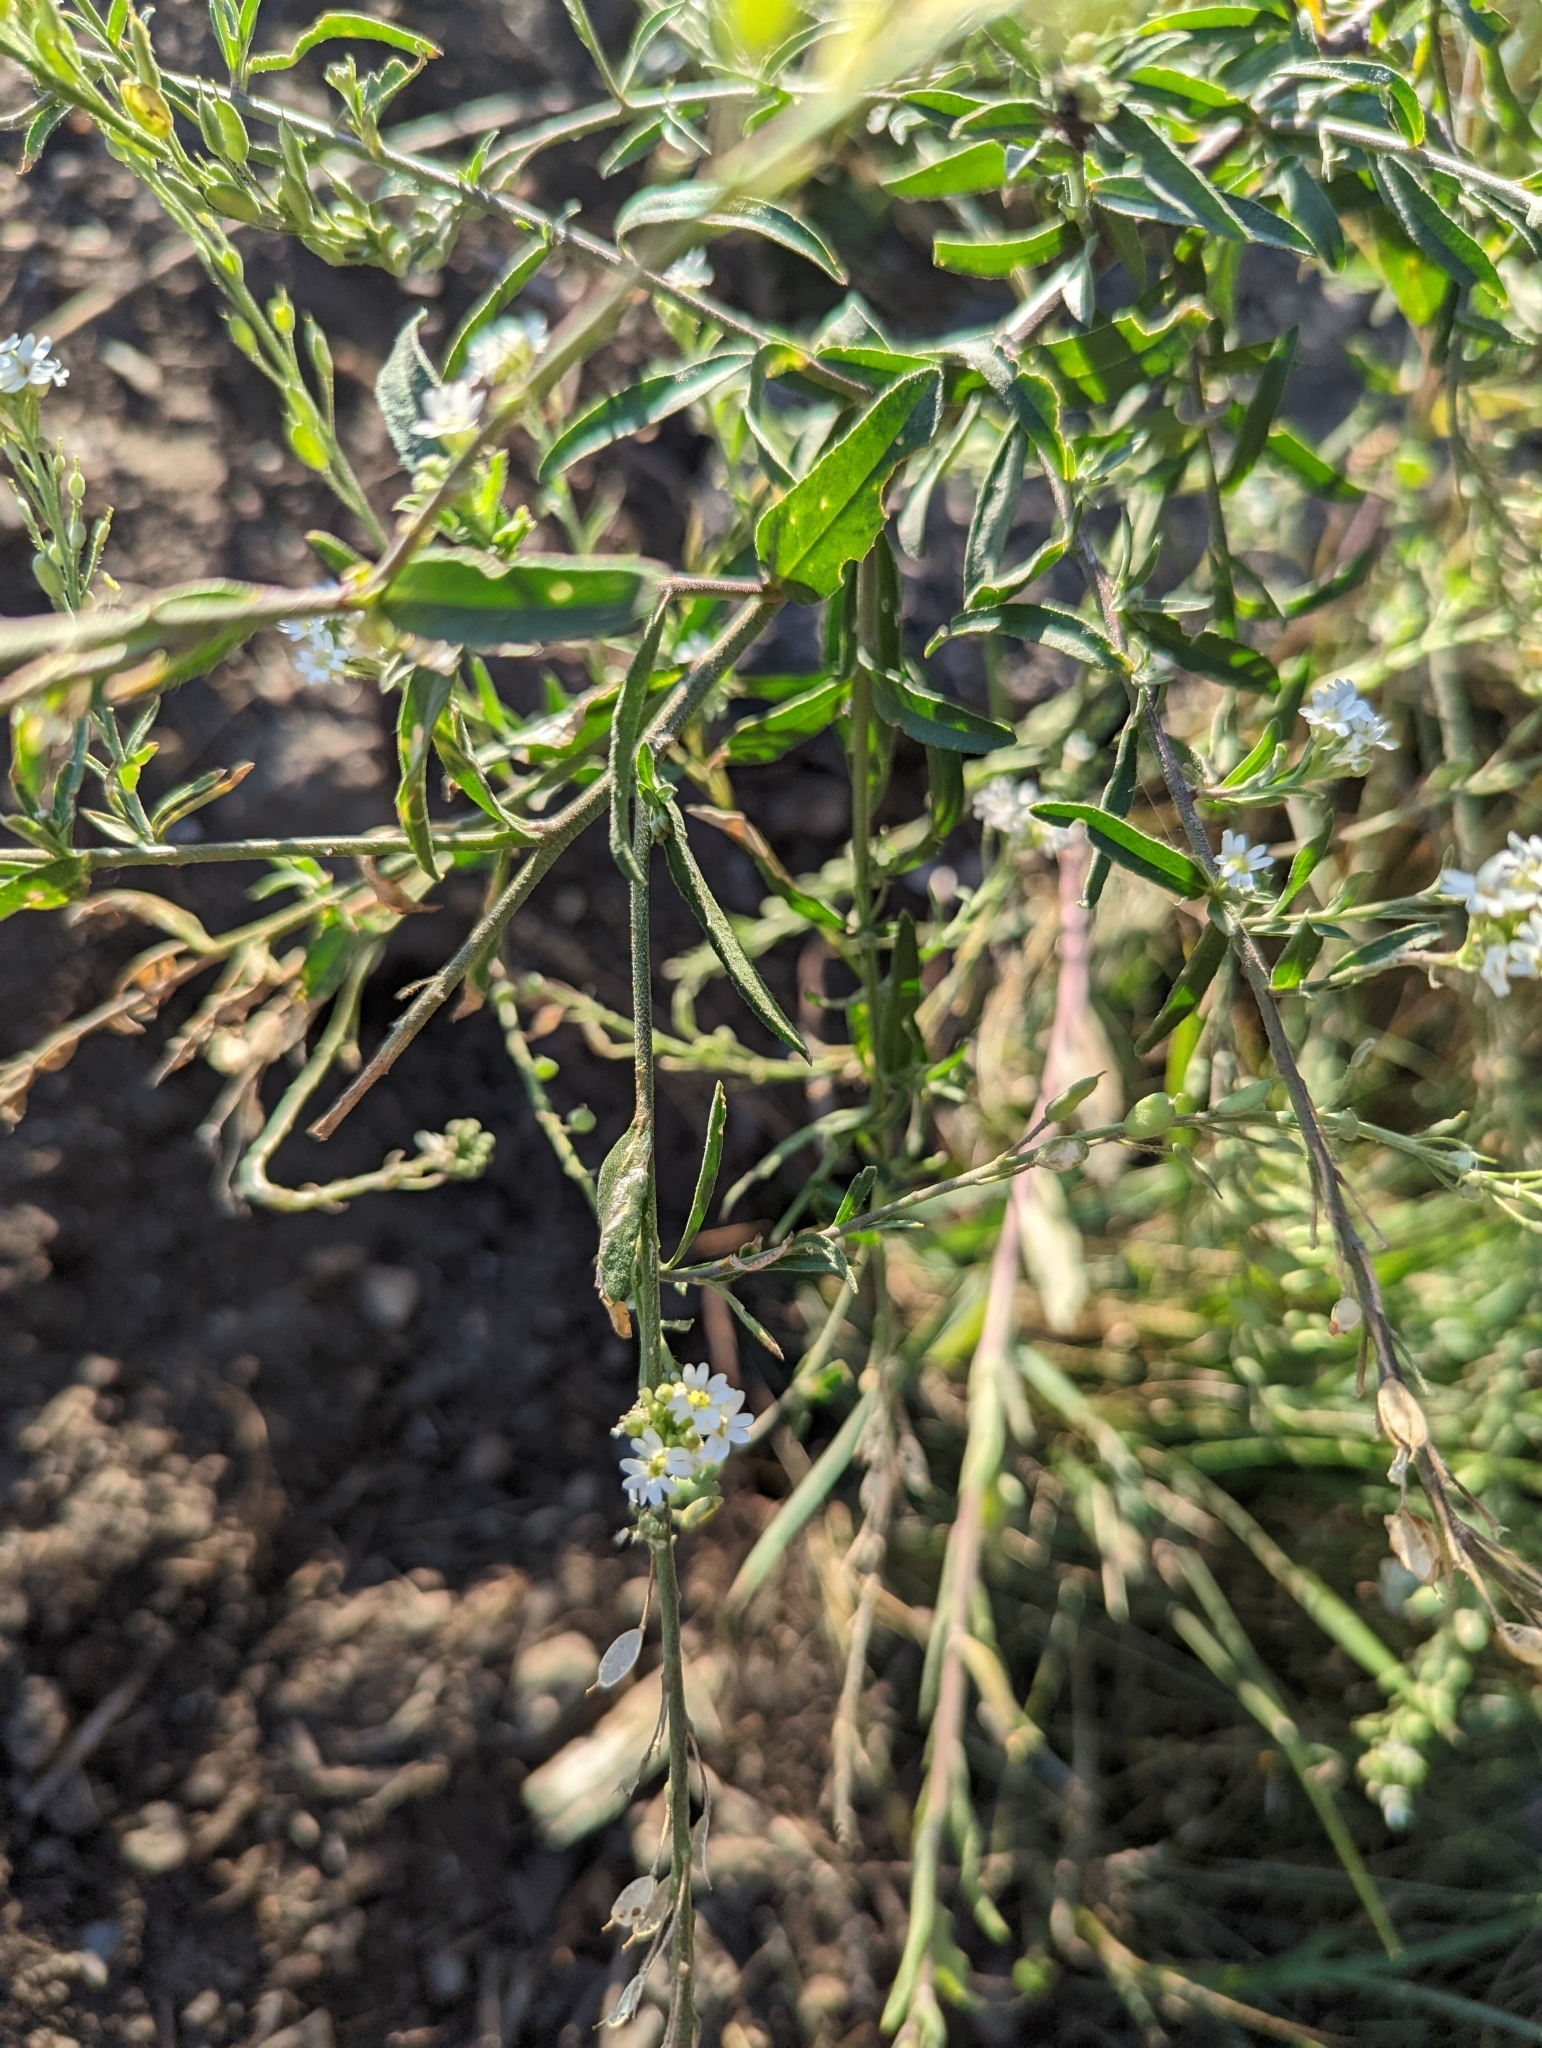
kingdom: Plantae
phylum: Tracheophyta
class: Magnoliopsida
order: Brassicales
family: Brassicaceae
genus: Berteroa
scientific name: Berteroa incana
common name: Hoary alison
